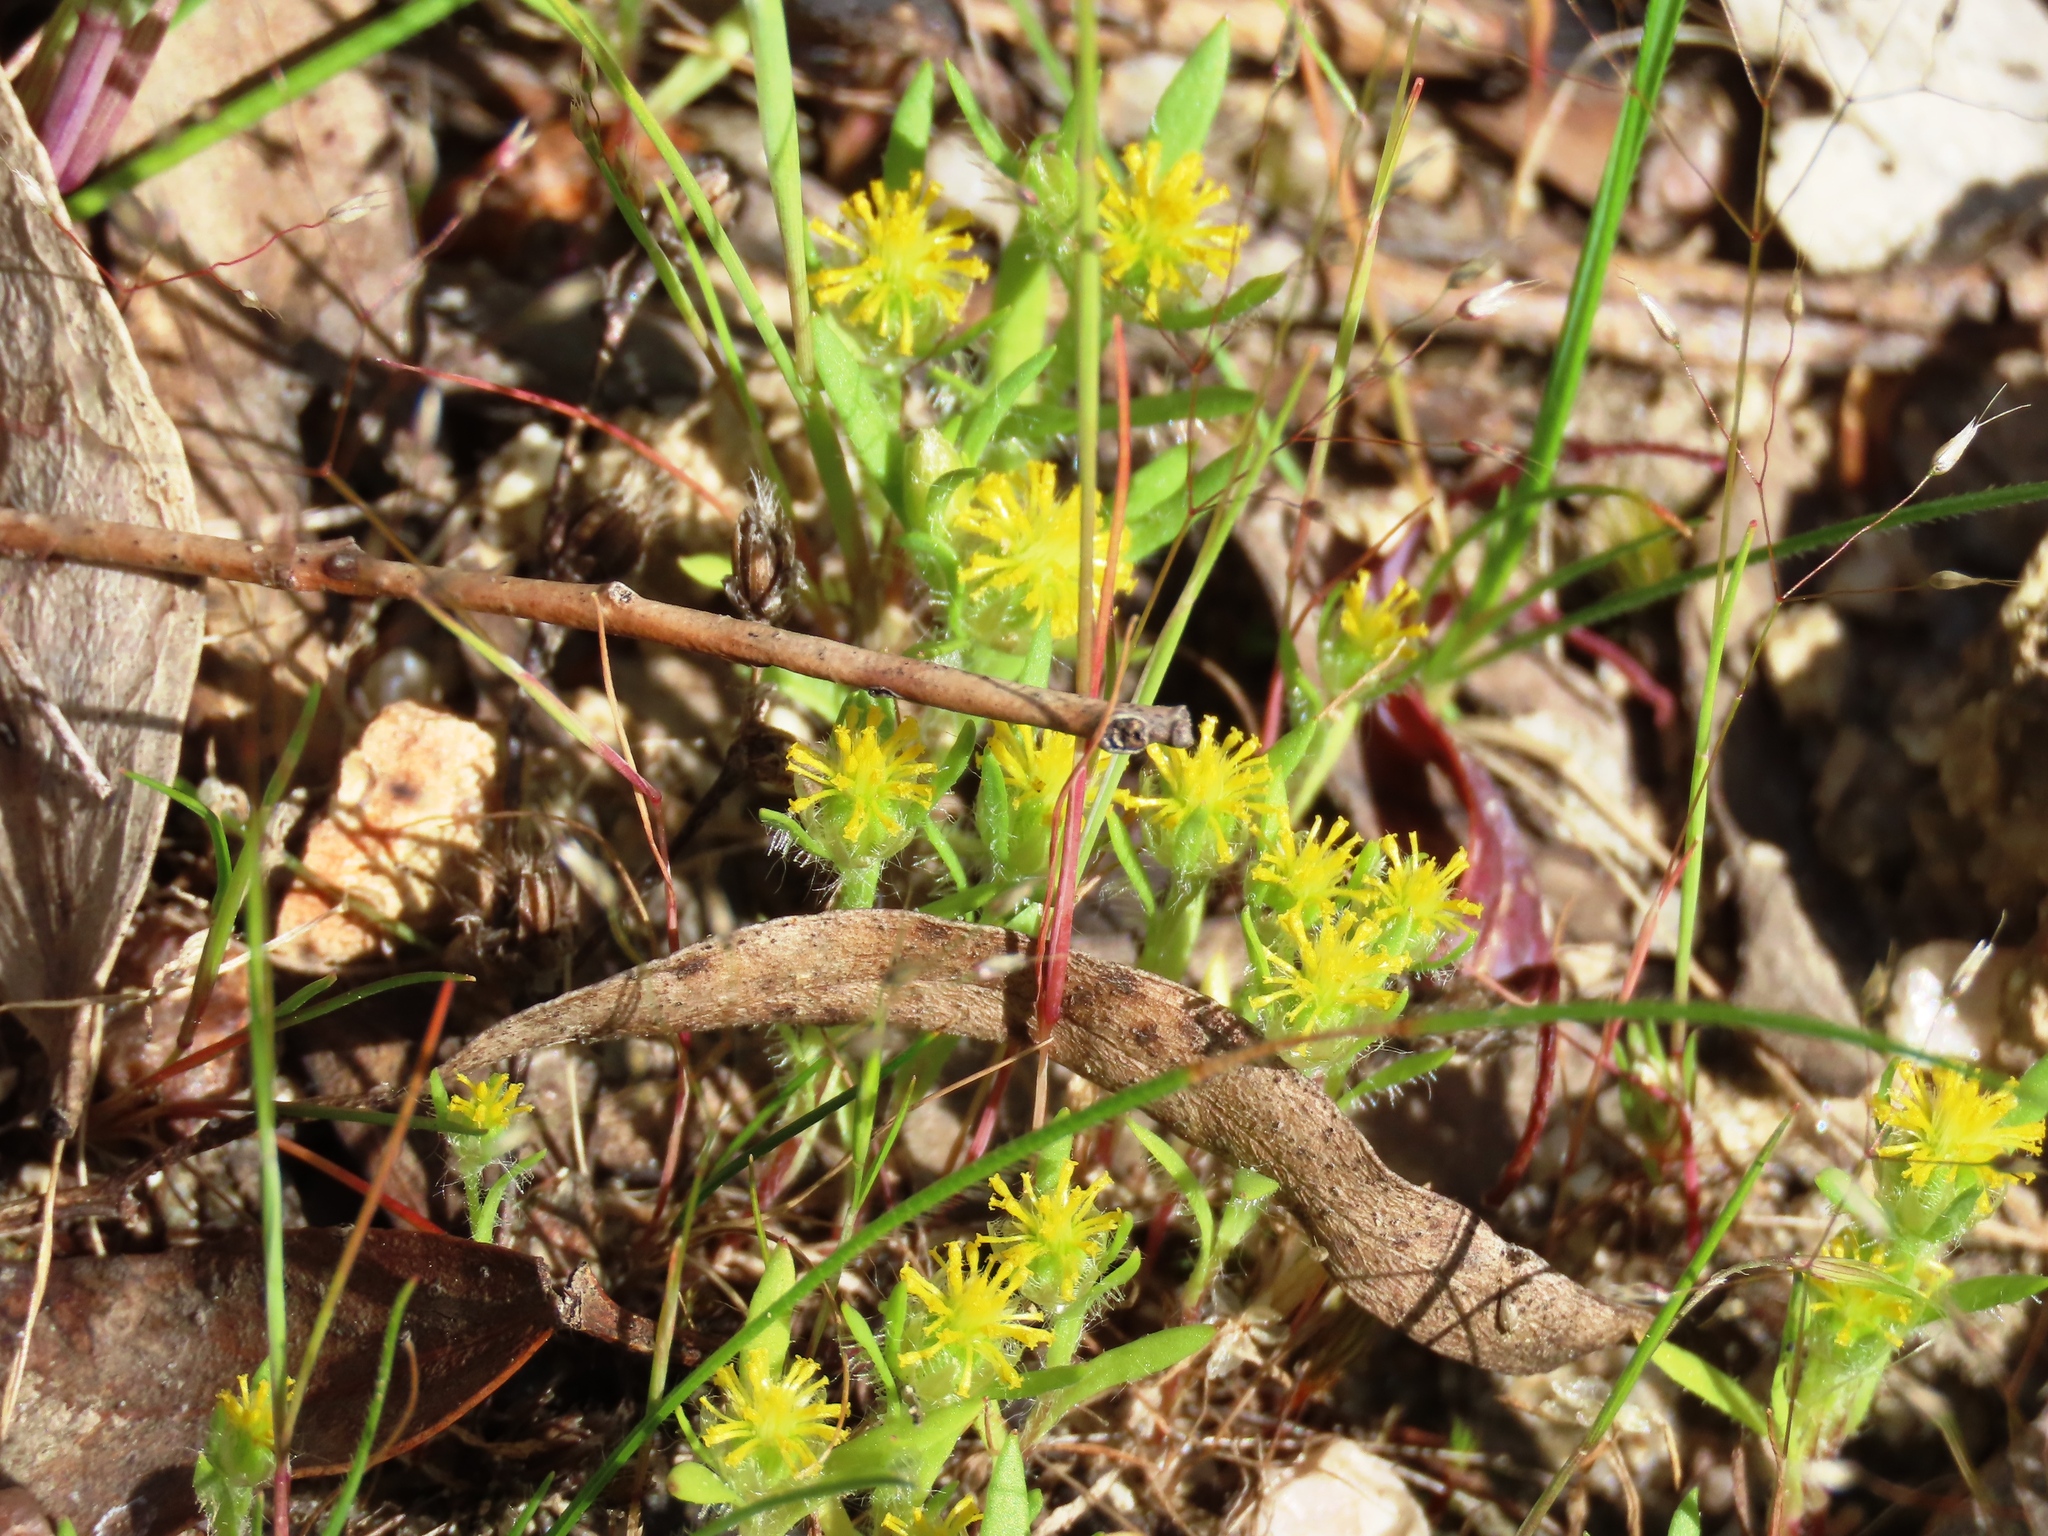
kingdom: Plantae
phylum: Tracheophyta
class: Magnoliopsida
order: Asterales
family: Asteraceae
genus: Triptilodiscus
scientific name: Triptilodiscus pygmaeus
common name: Common sunray
